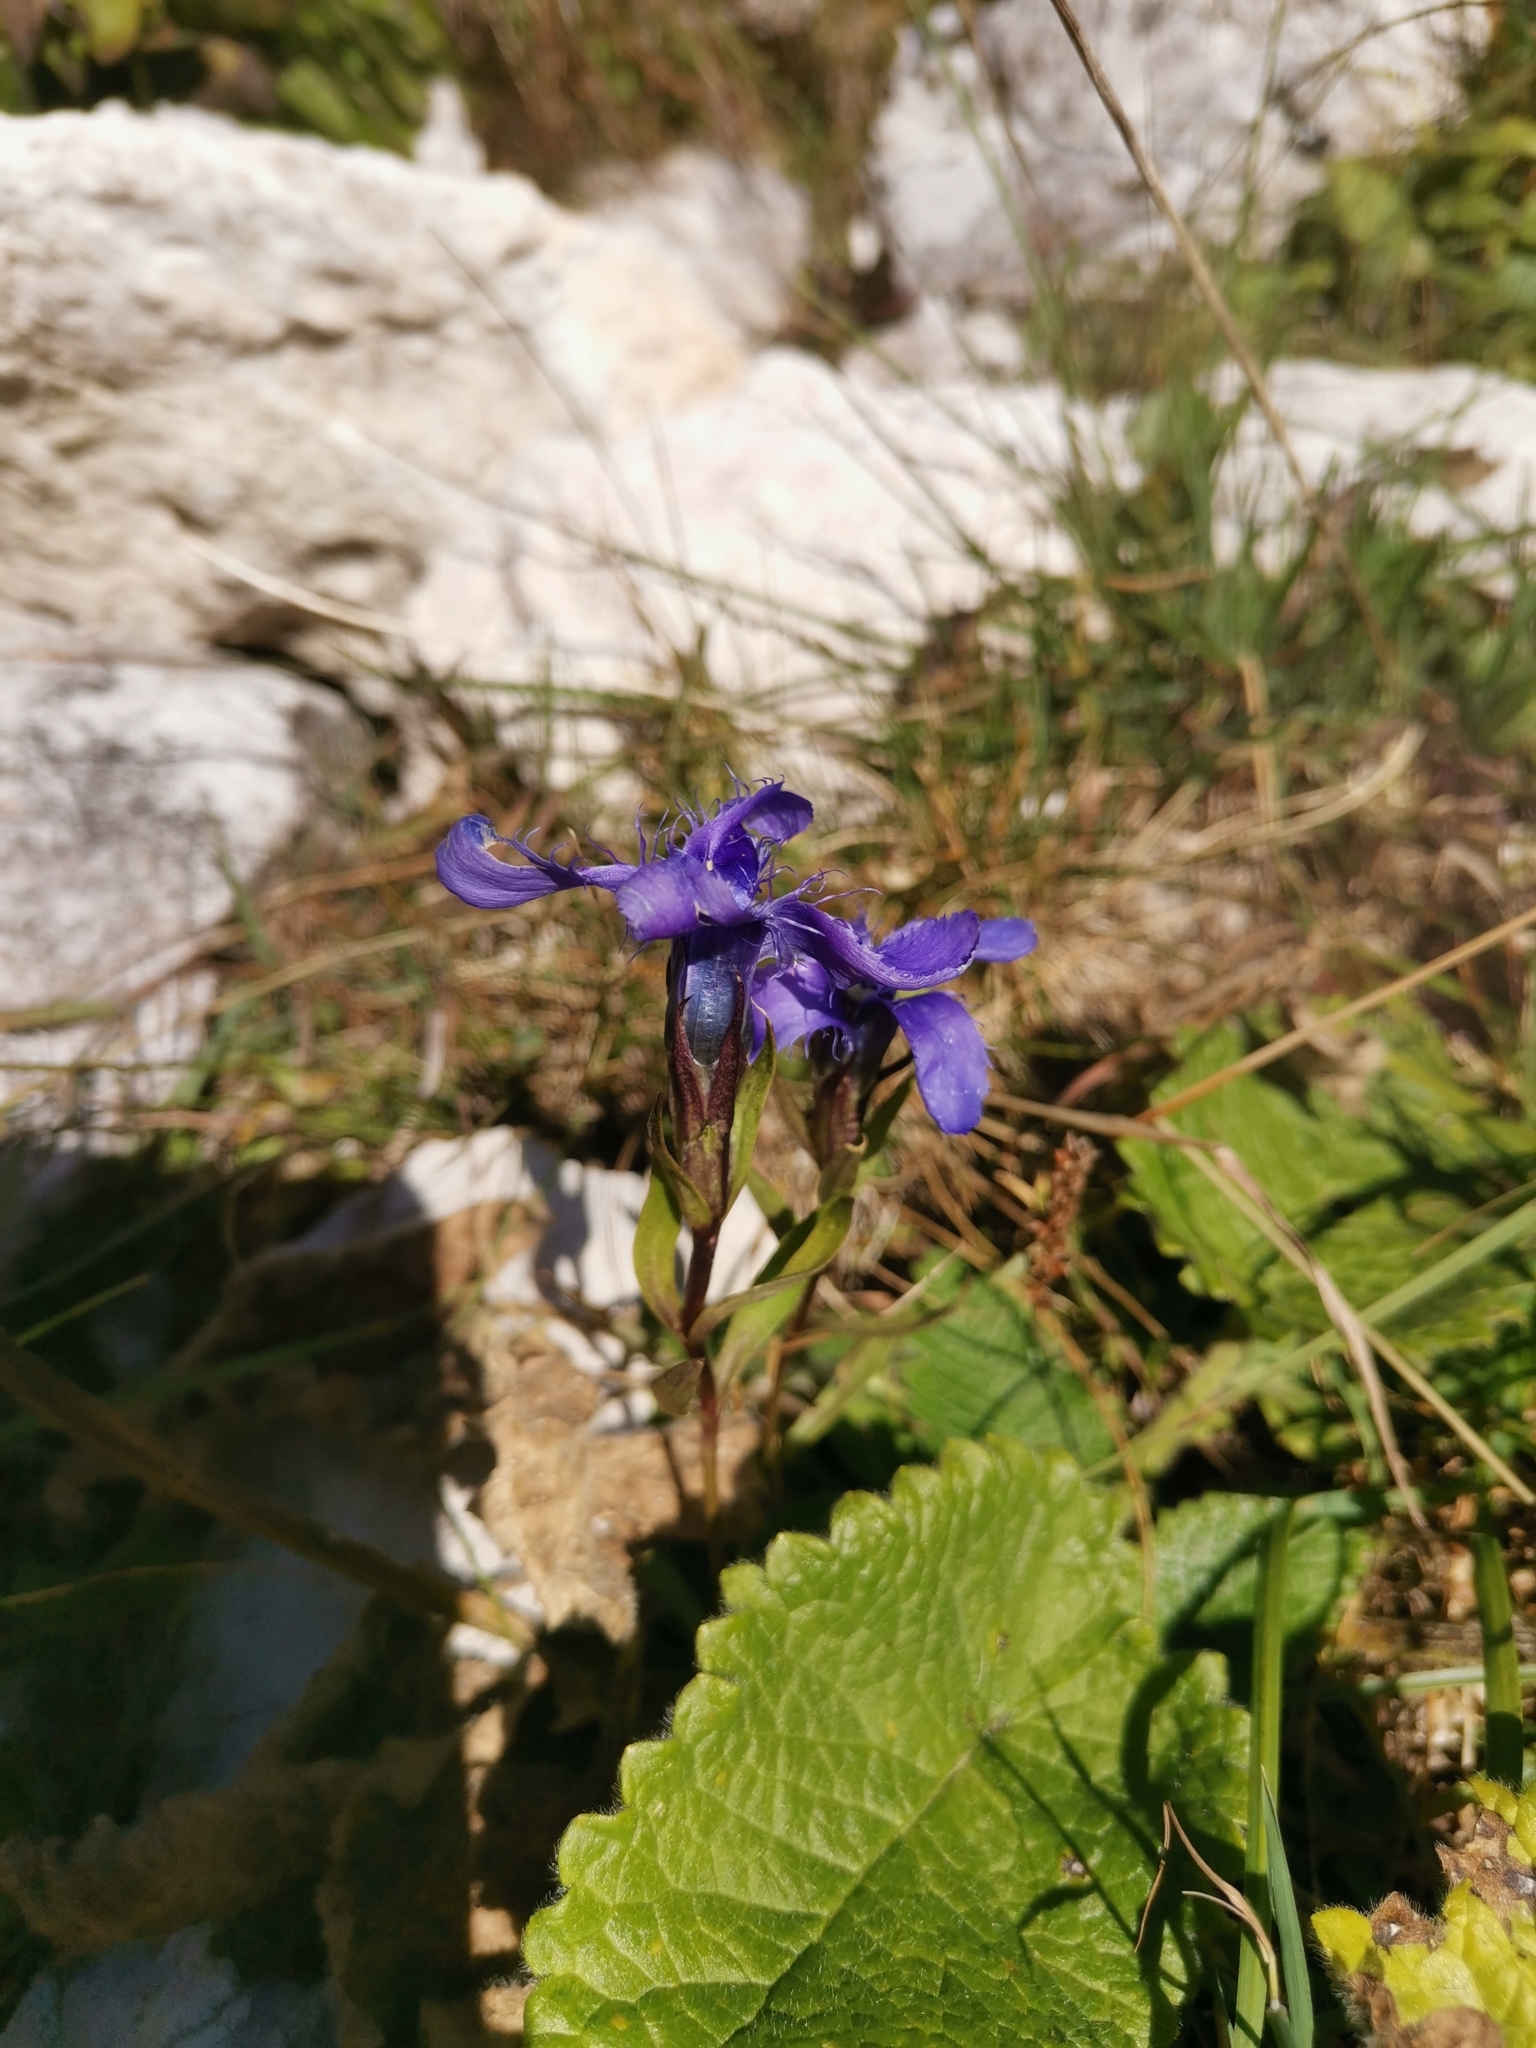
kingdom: Plantae
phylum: Tracheophyta
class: Magnoliopsida
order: Gentianales
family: Gentianaceae
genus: Gentianopsis
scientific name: Gentianopsis ciliata
